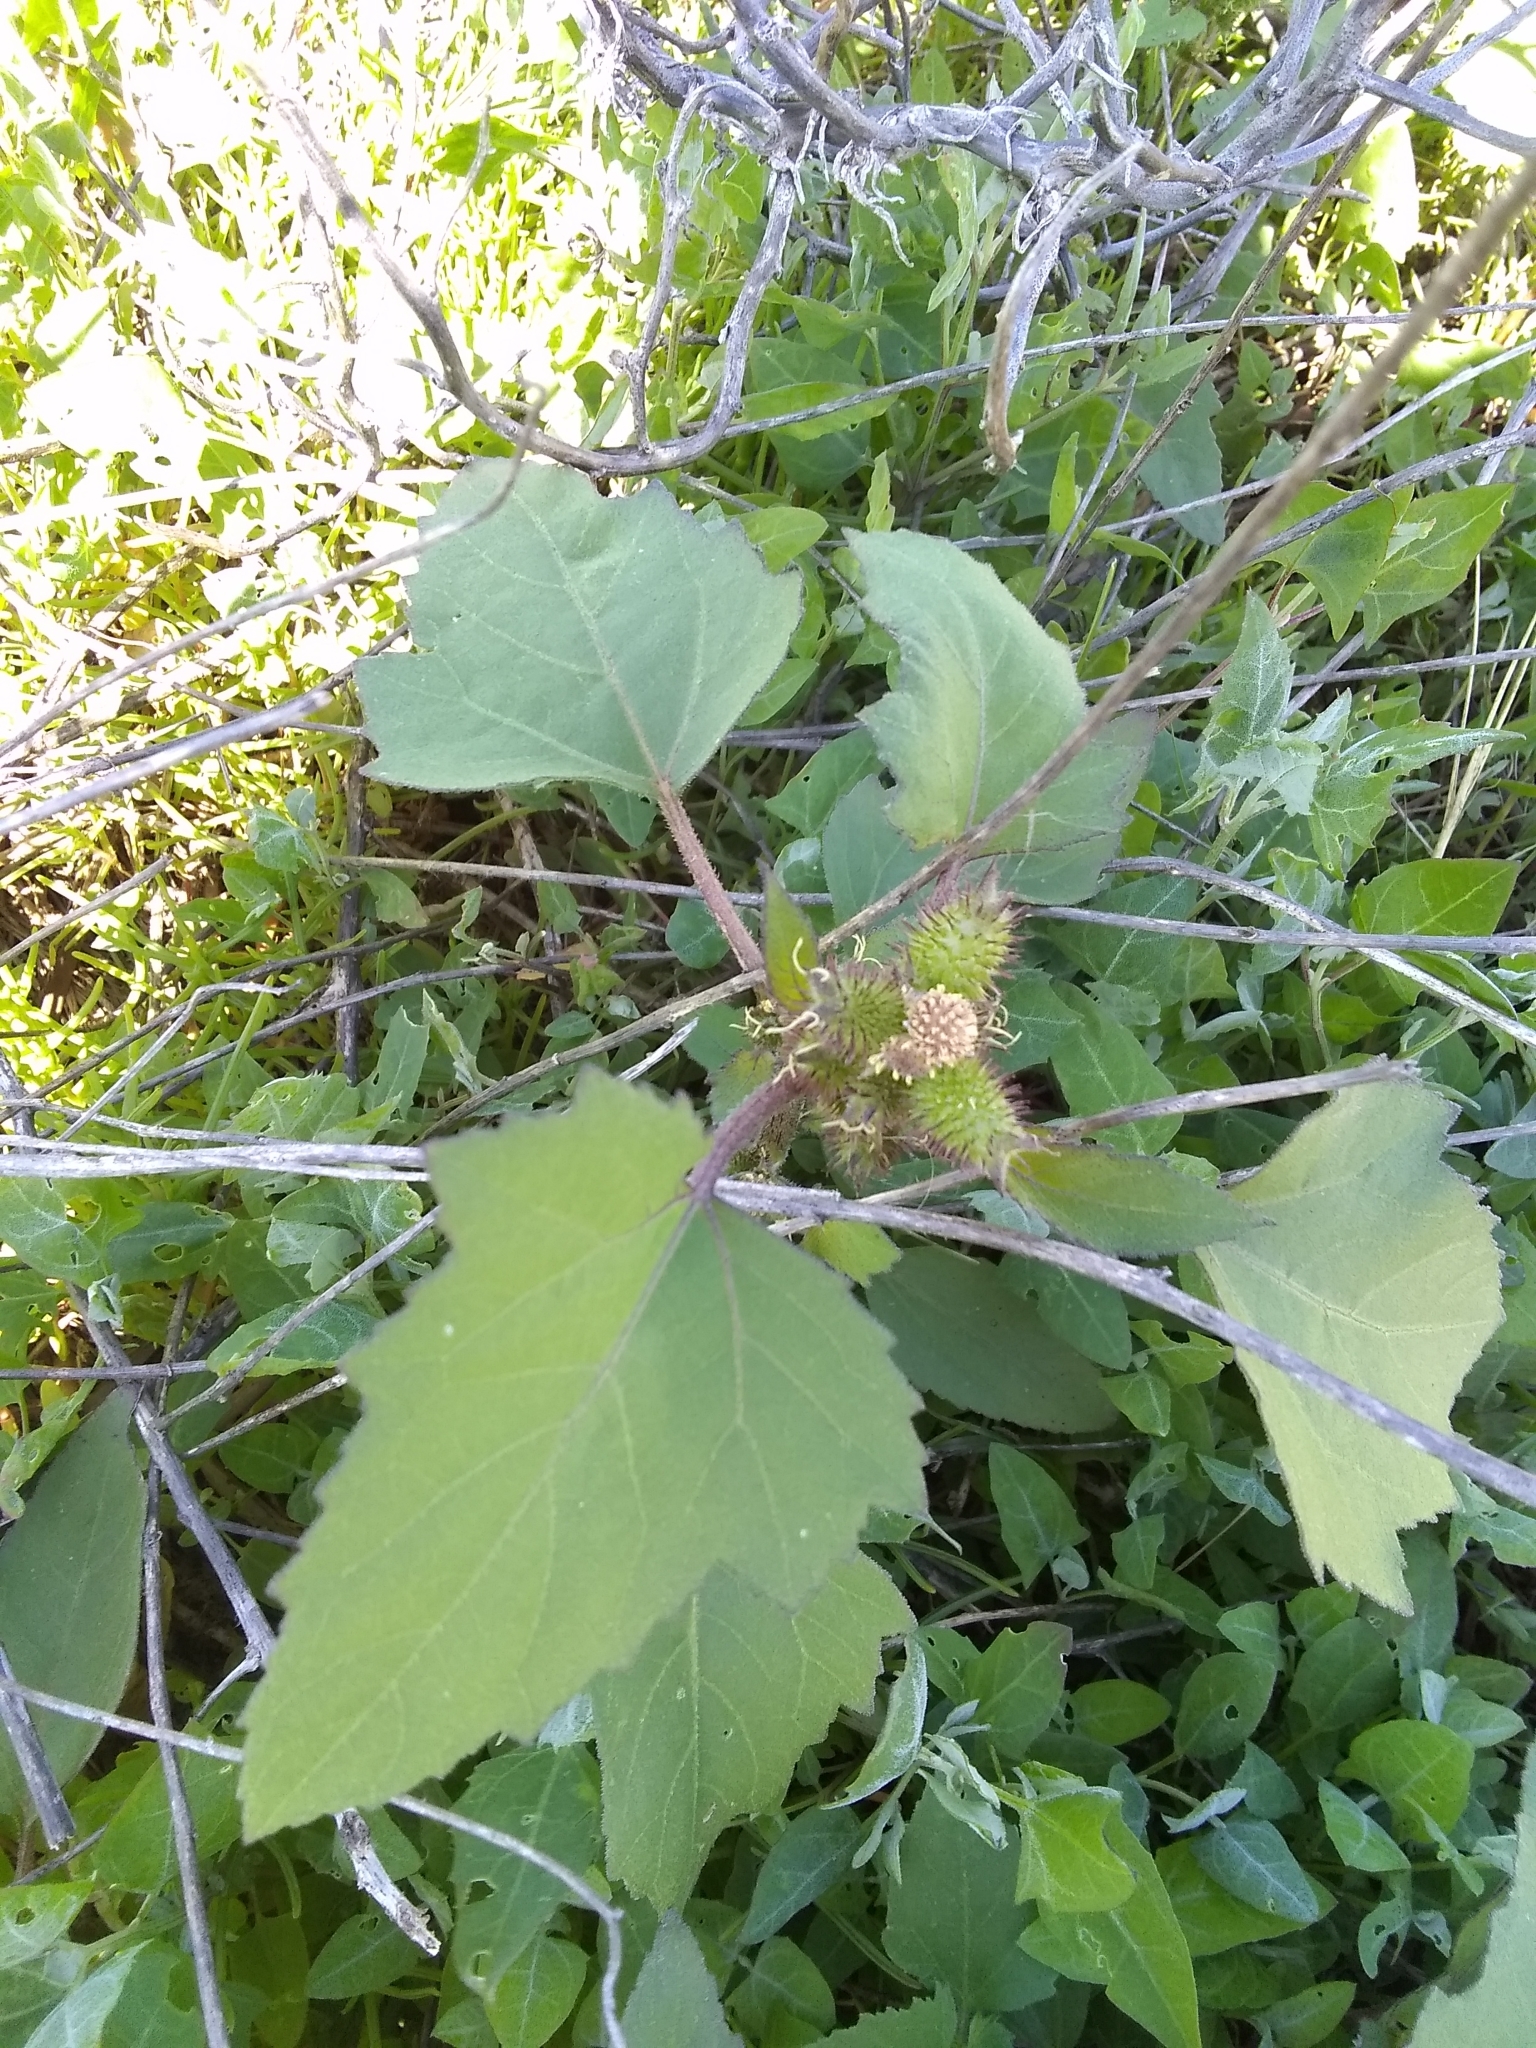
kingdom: Plantae
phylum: Tracheophyta
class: Magnoliopsida
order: Asterales
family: Asteraceae
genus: Xanthium
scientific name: Xanthium strumarium
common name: Rough cocklebur
